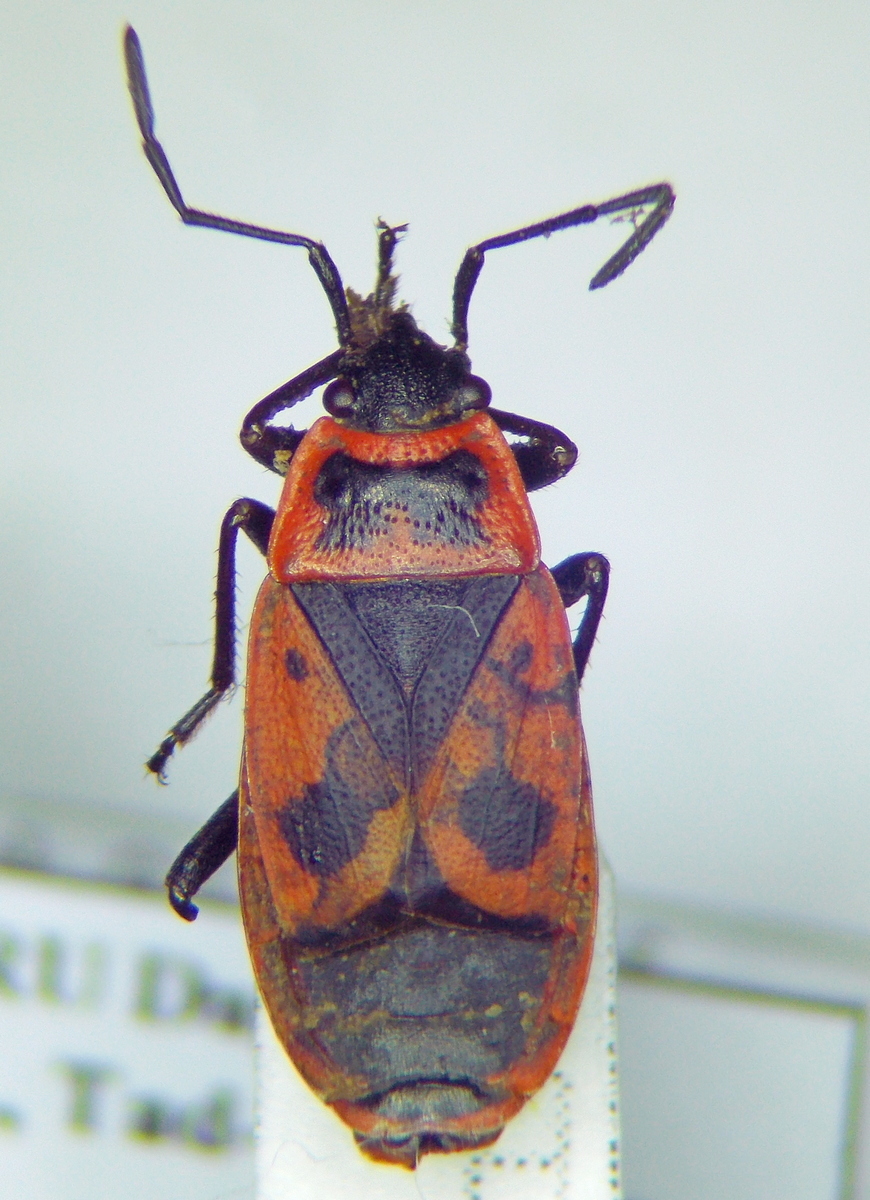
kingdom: Animalia
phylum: Arthropoda
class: Insecta
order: Hemiptera
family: Pyrrhocoridae
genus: Pyrrhocoris
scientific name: Pyrrhocoris apterus
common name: Firebug
